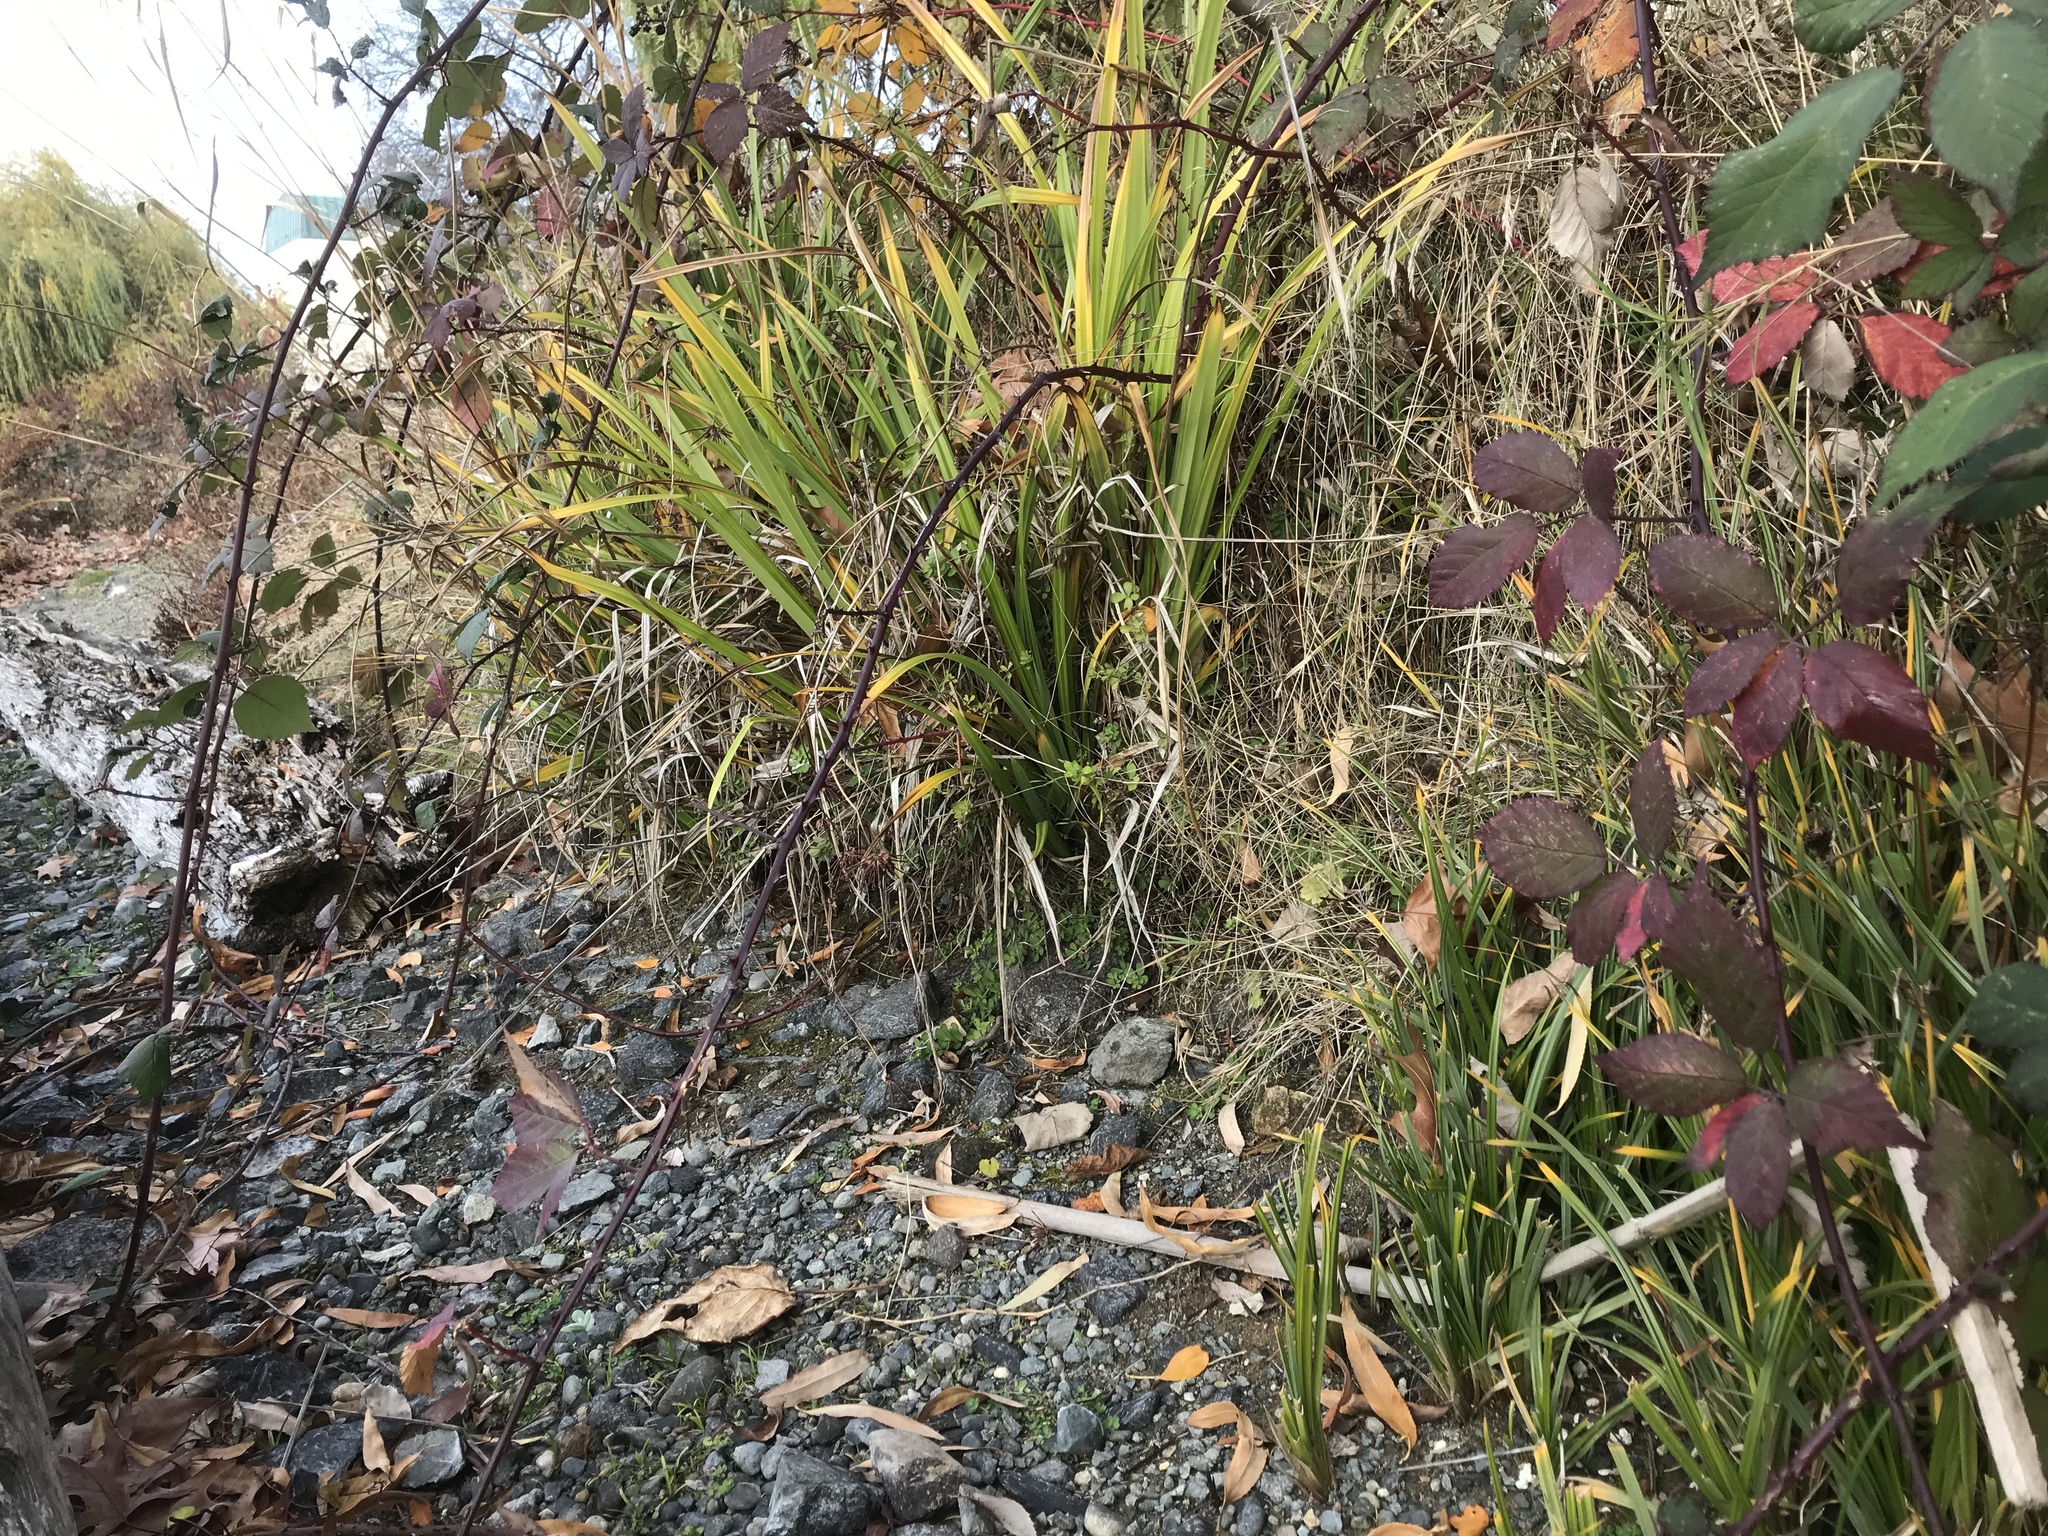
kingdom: Plantae
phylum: Tracheophyta
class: Liliopsida
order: Poales
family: Cyperaceae
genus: Carex
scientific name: Carex pendula
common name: Pendulous sedge
